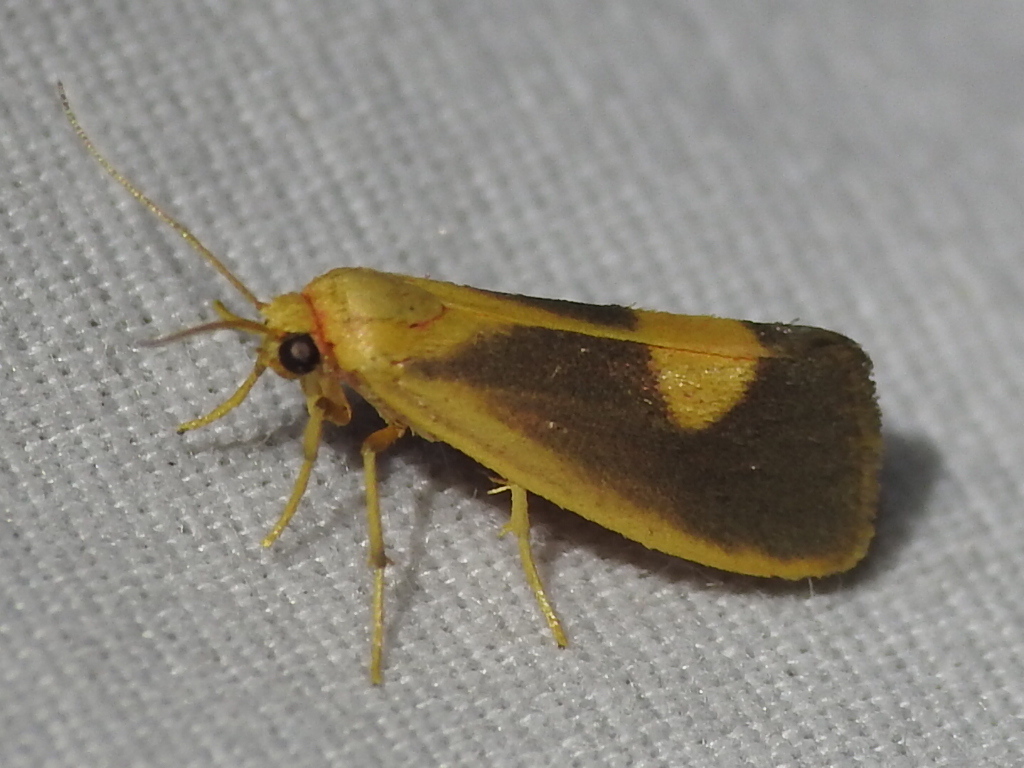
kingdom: Animalia
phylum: Arthropoda
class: Insecta
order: Lepidoptera
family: Erebidae
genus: Cisthene
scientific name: Cisthene plumbea
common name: Lead colored lichen moth
